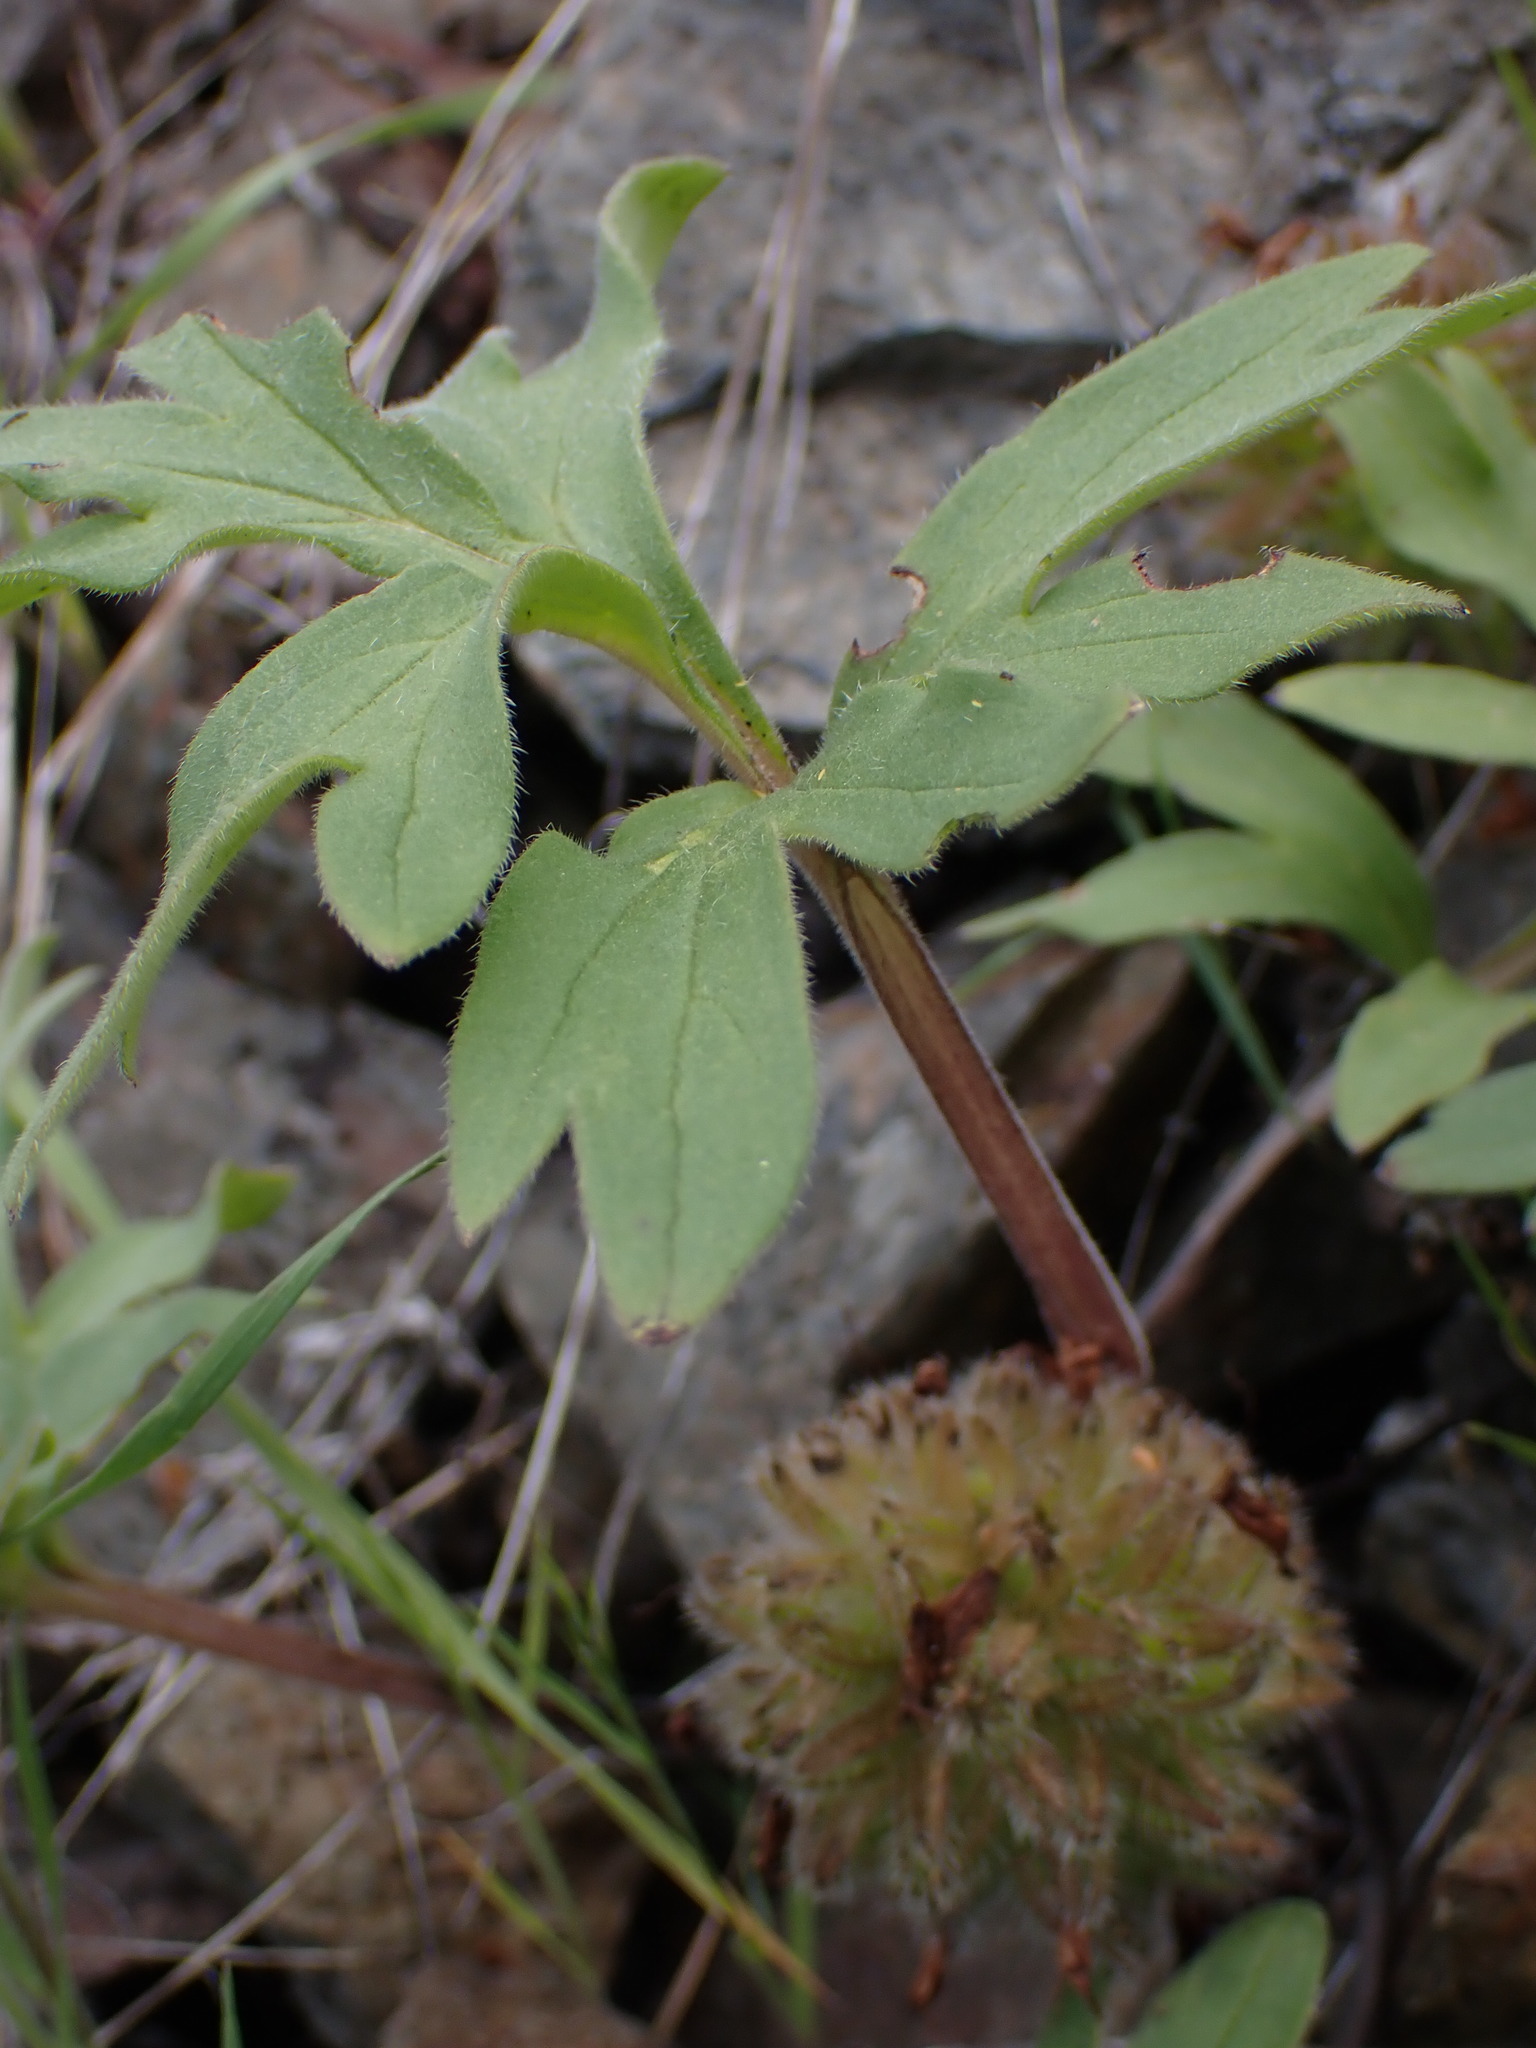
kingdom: Plantae
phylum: Tracheophyta
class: Magnoliopsida
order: Boraginales
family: Hydrophyllaceae
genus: Hydrophyllum
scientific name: Hydrophyllum capitatum
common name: Woollen-breeches
